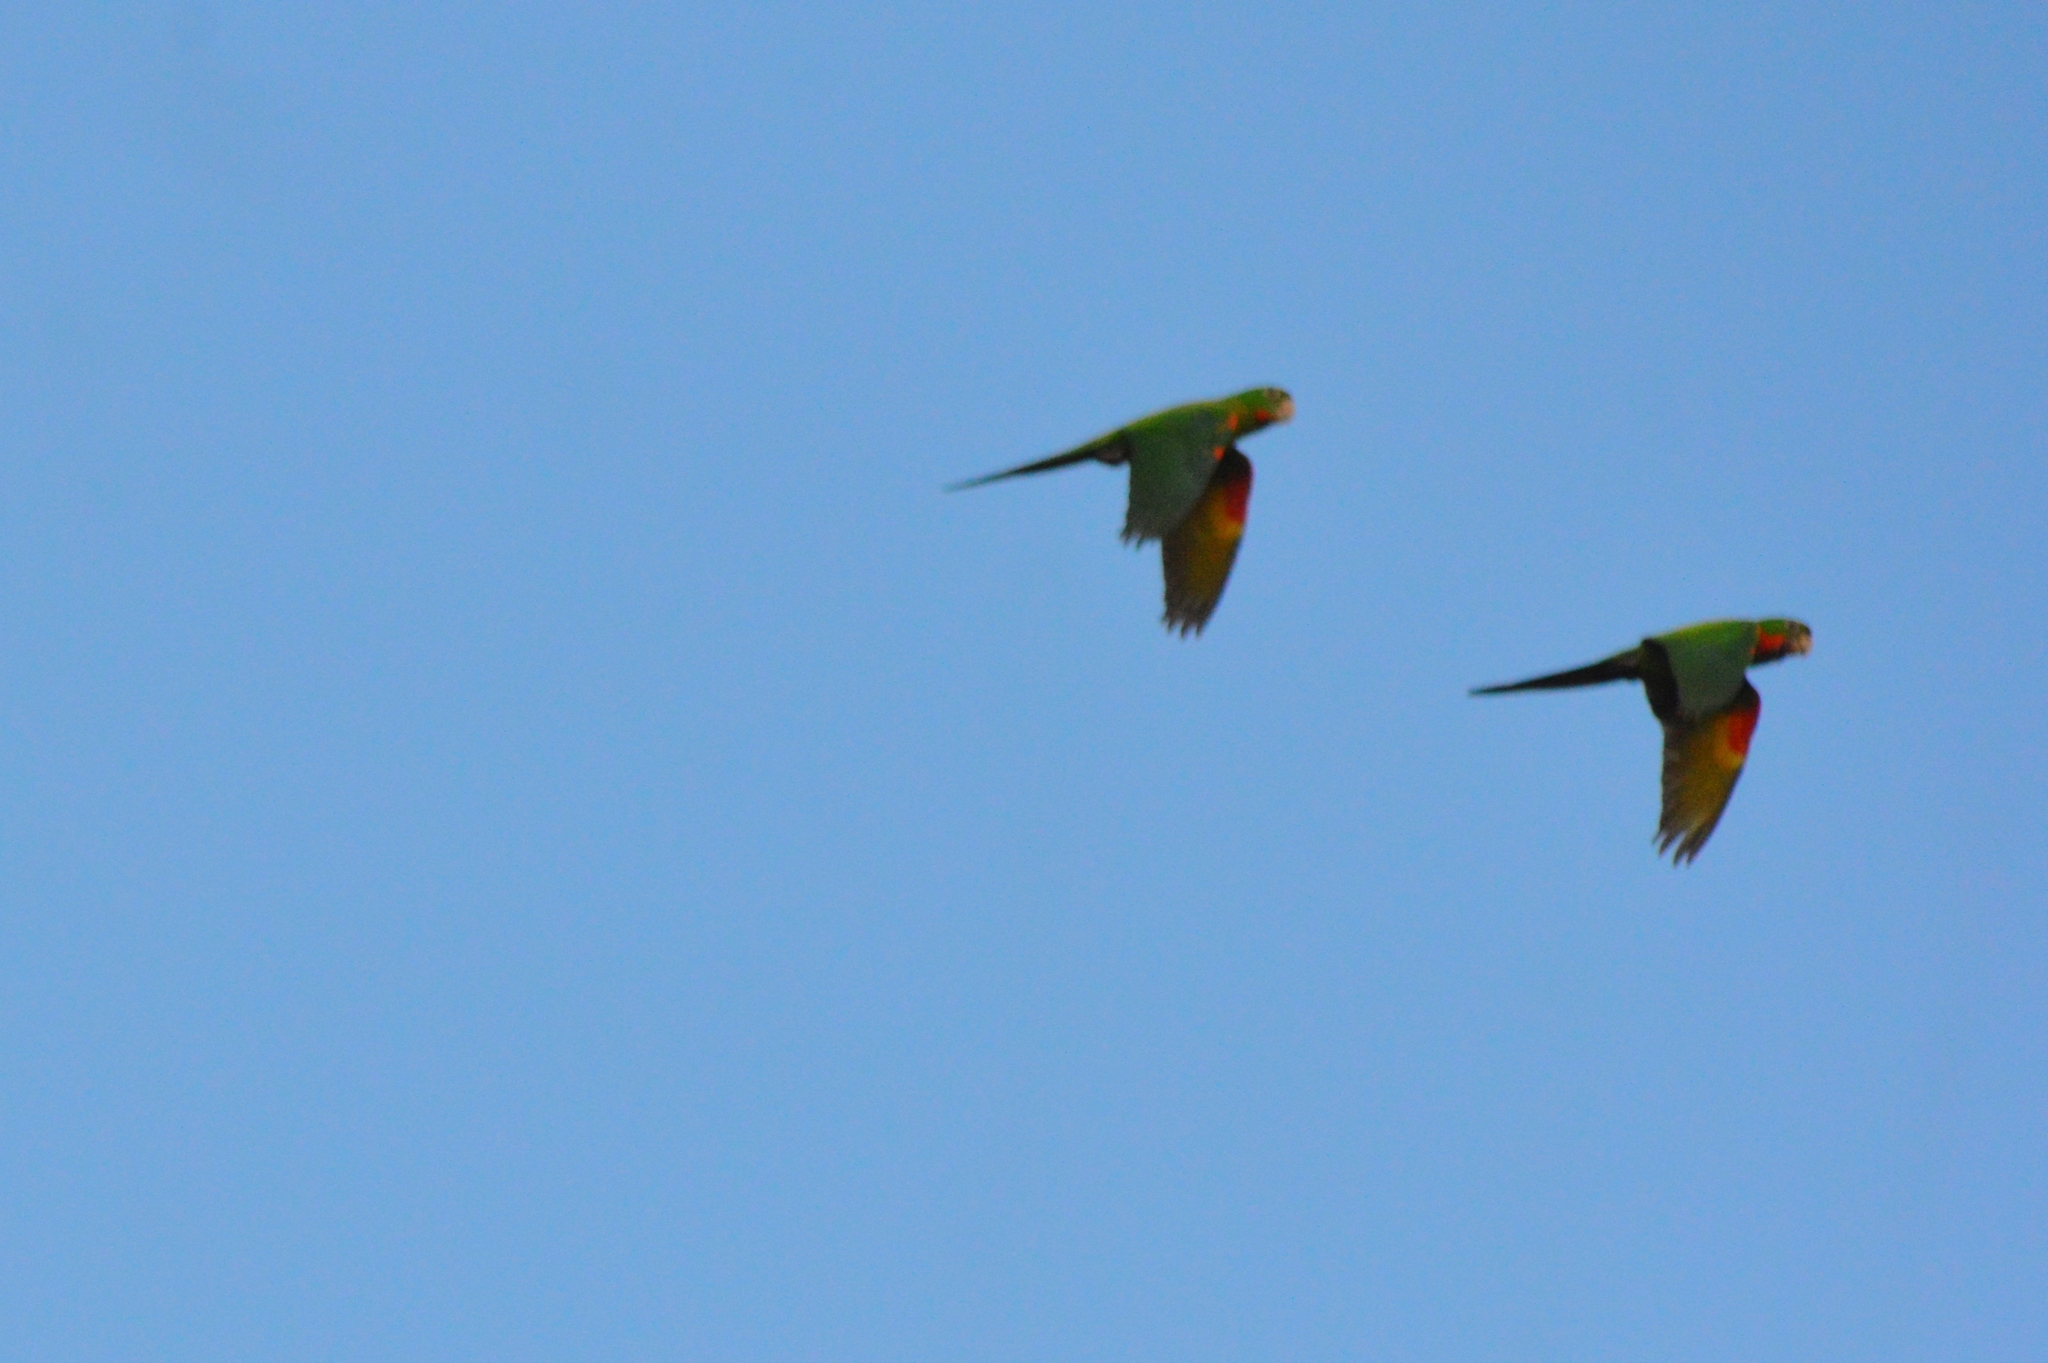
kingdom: Animalia
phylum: Chordata
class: Aves
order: Psittaciformes
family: Psittacidae
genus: Aratinga
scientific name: Aratinga leucophthalma
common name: White-eyed parakeet
